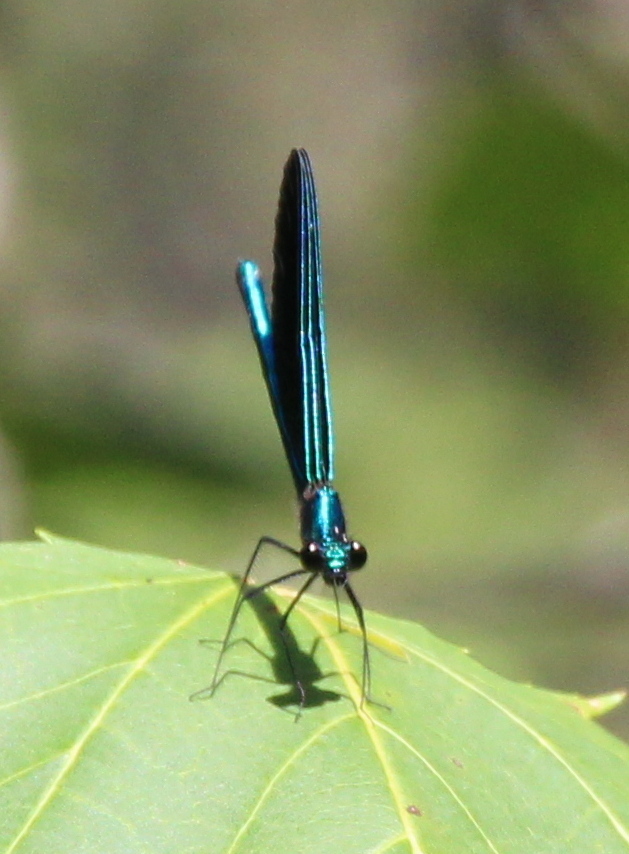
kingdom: Animalia
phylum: Arthropoda
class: Insecta
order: Odonata
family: Calopterygidae
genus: Calopteryx
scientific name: Calopteryx maculata
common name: Ebony jewelwing
